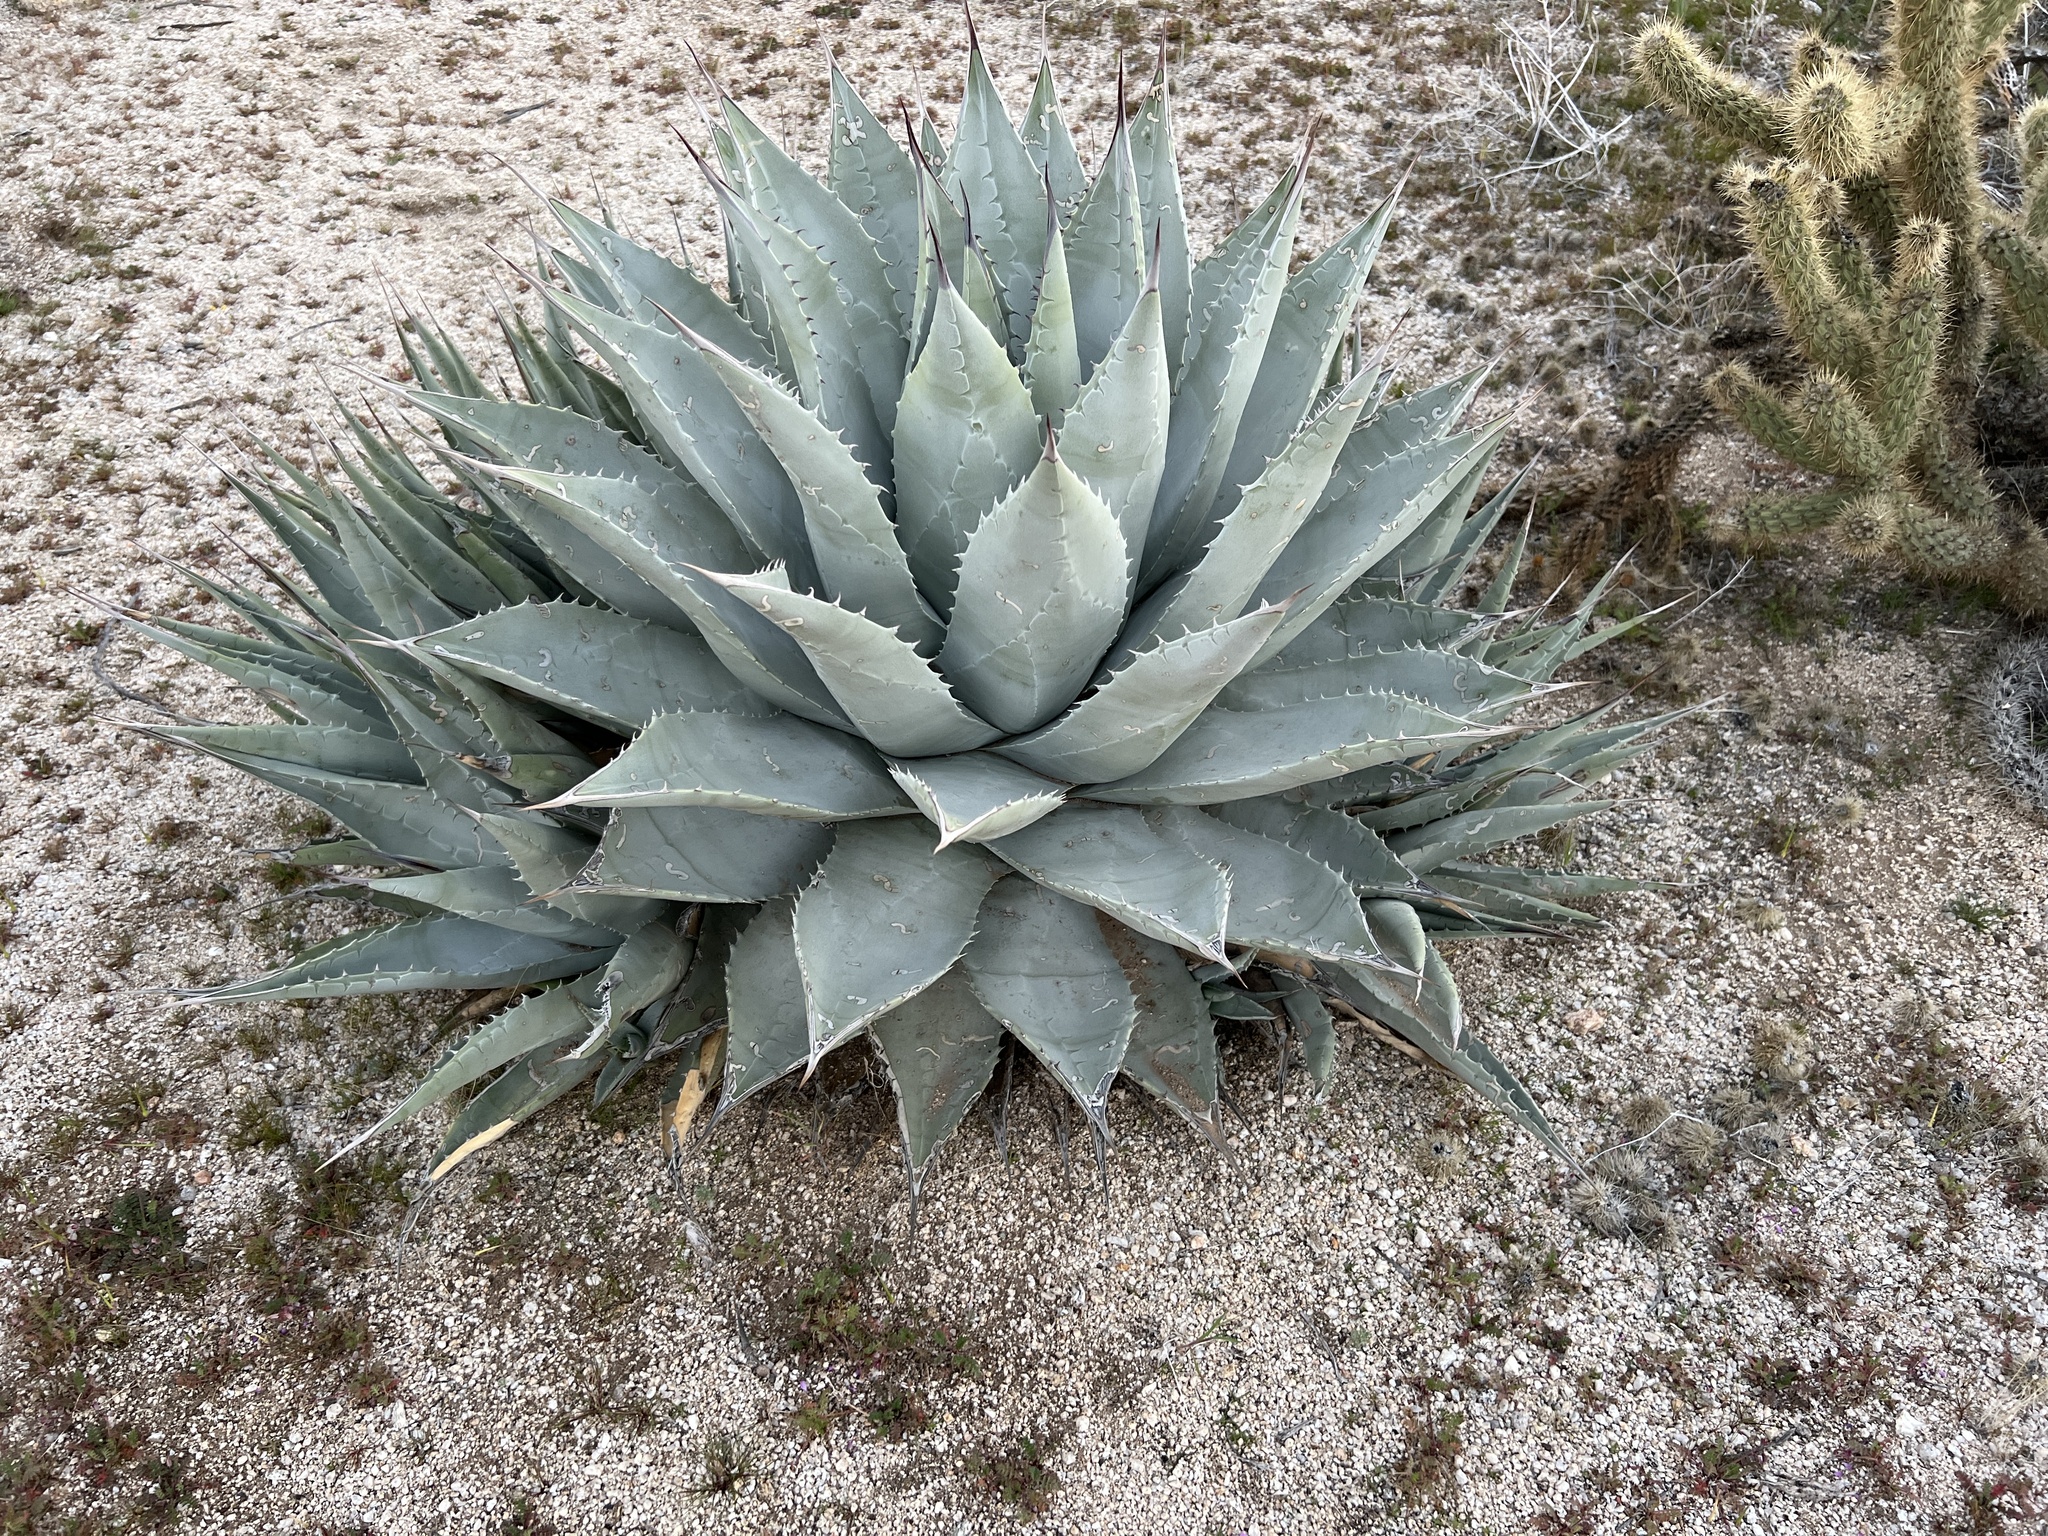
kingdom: Plantae
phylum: Tracheophyta
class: Liliopsida
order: Asparagales
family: Asparagaceae
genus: Agave
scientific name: Agave deserti
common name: Desert agave
